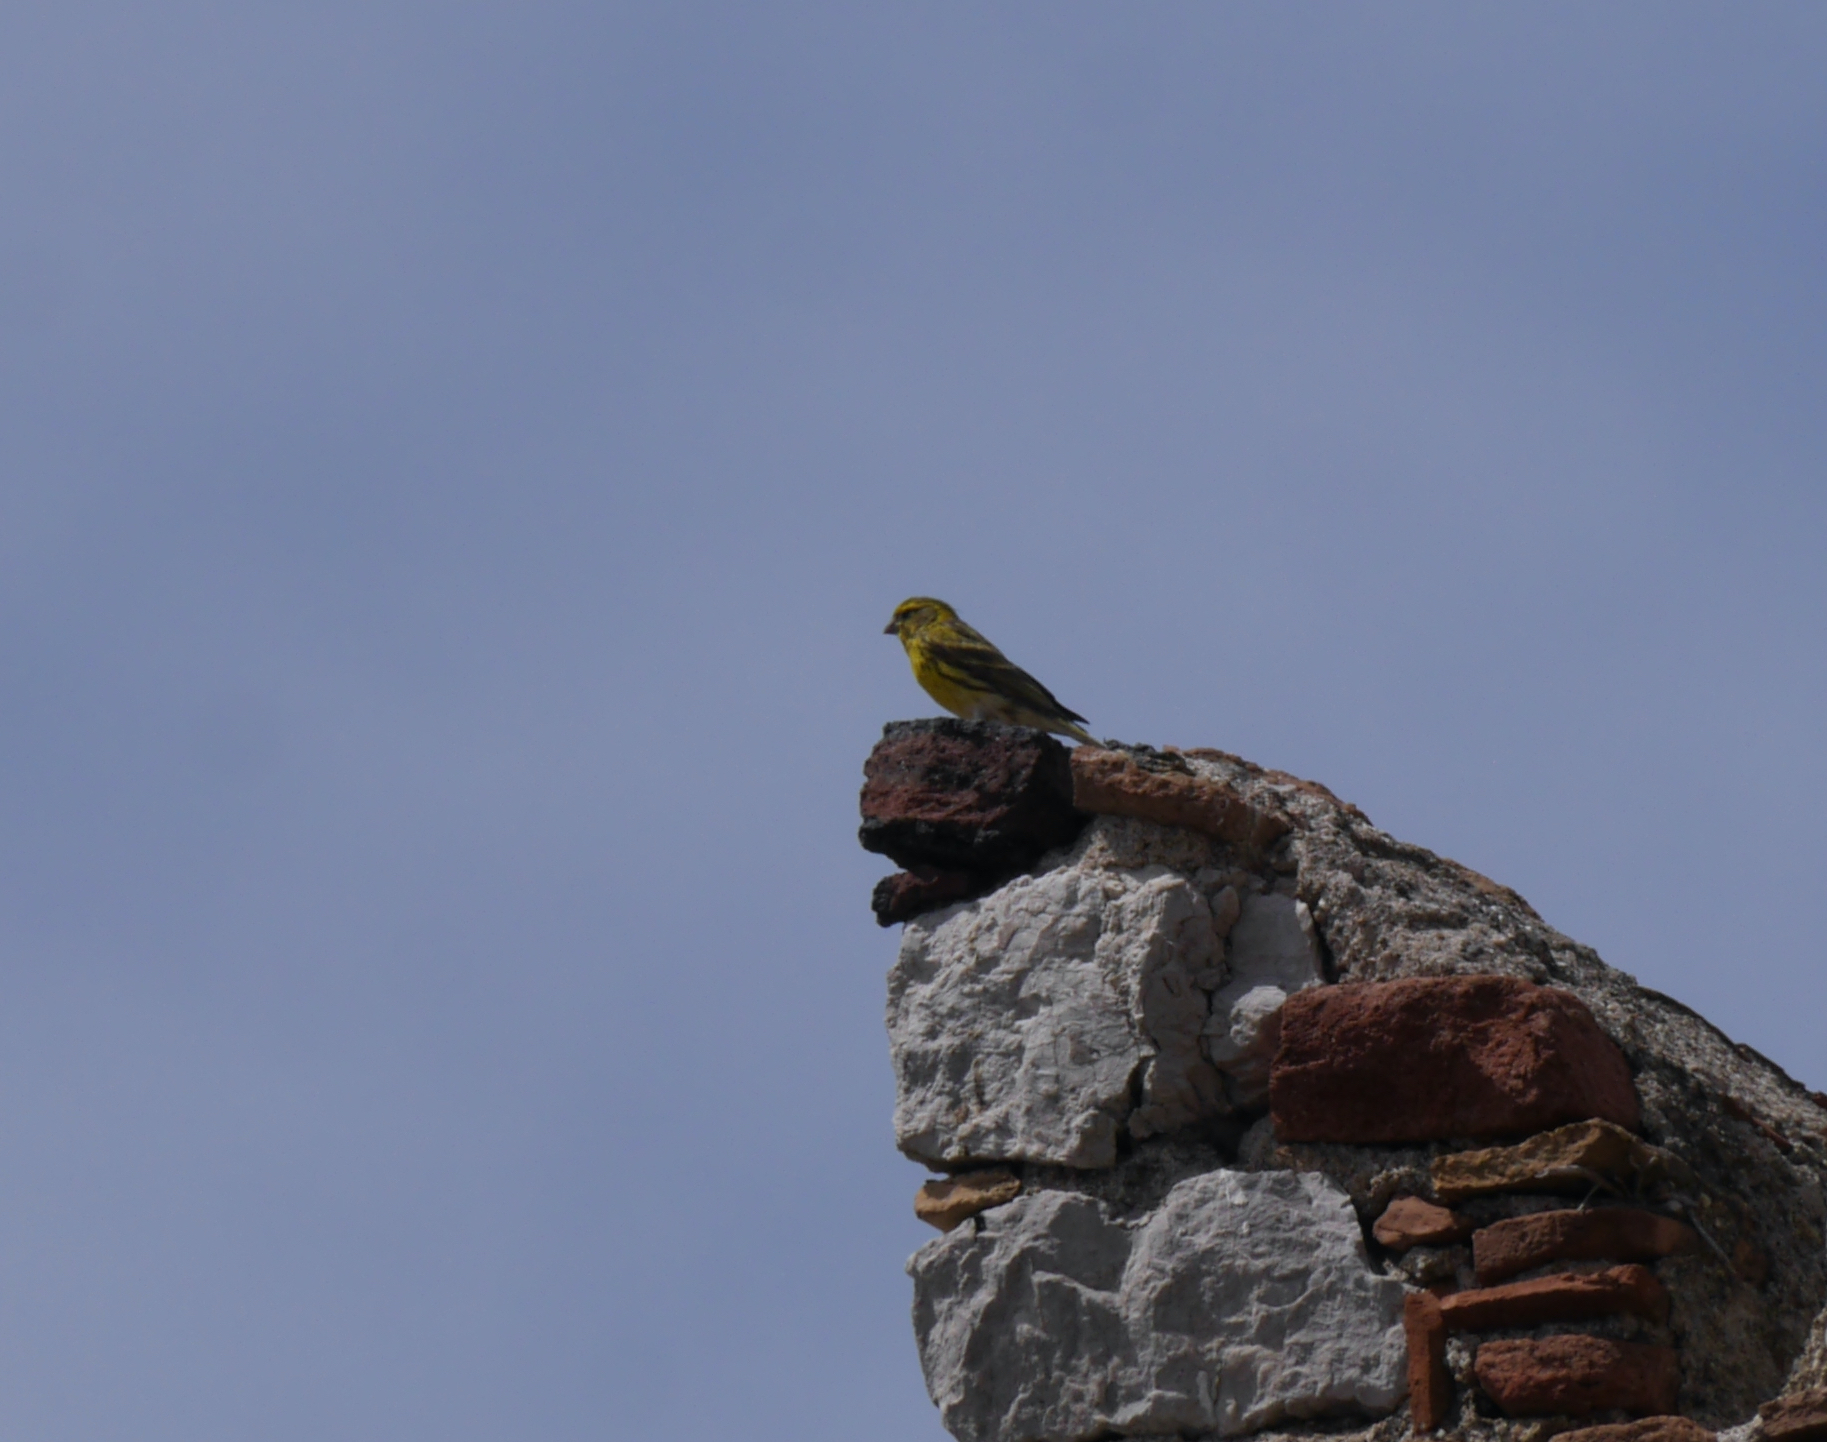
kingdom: Animalia
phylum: Chordata
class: Aves
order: Passeriformes
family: Fringillidae
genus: Serinus
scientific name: Serinus serinus
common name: European serin
